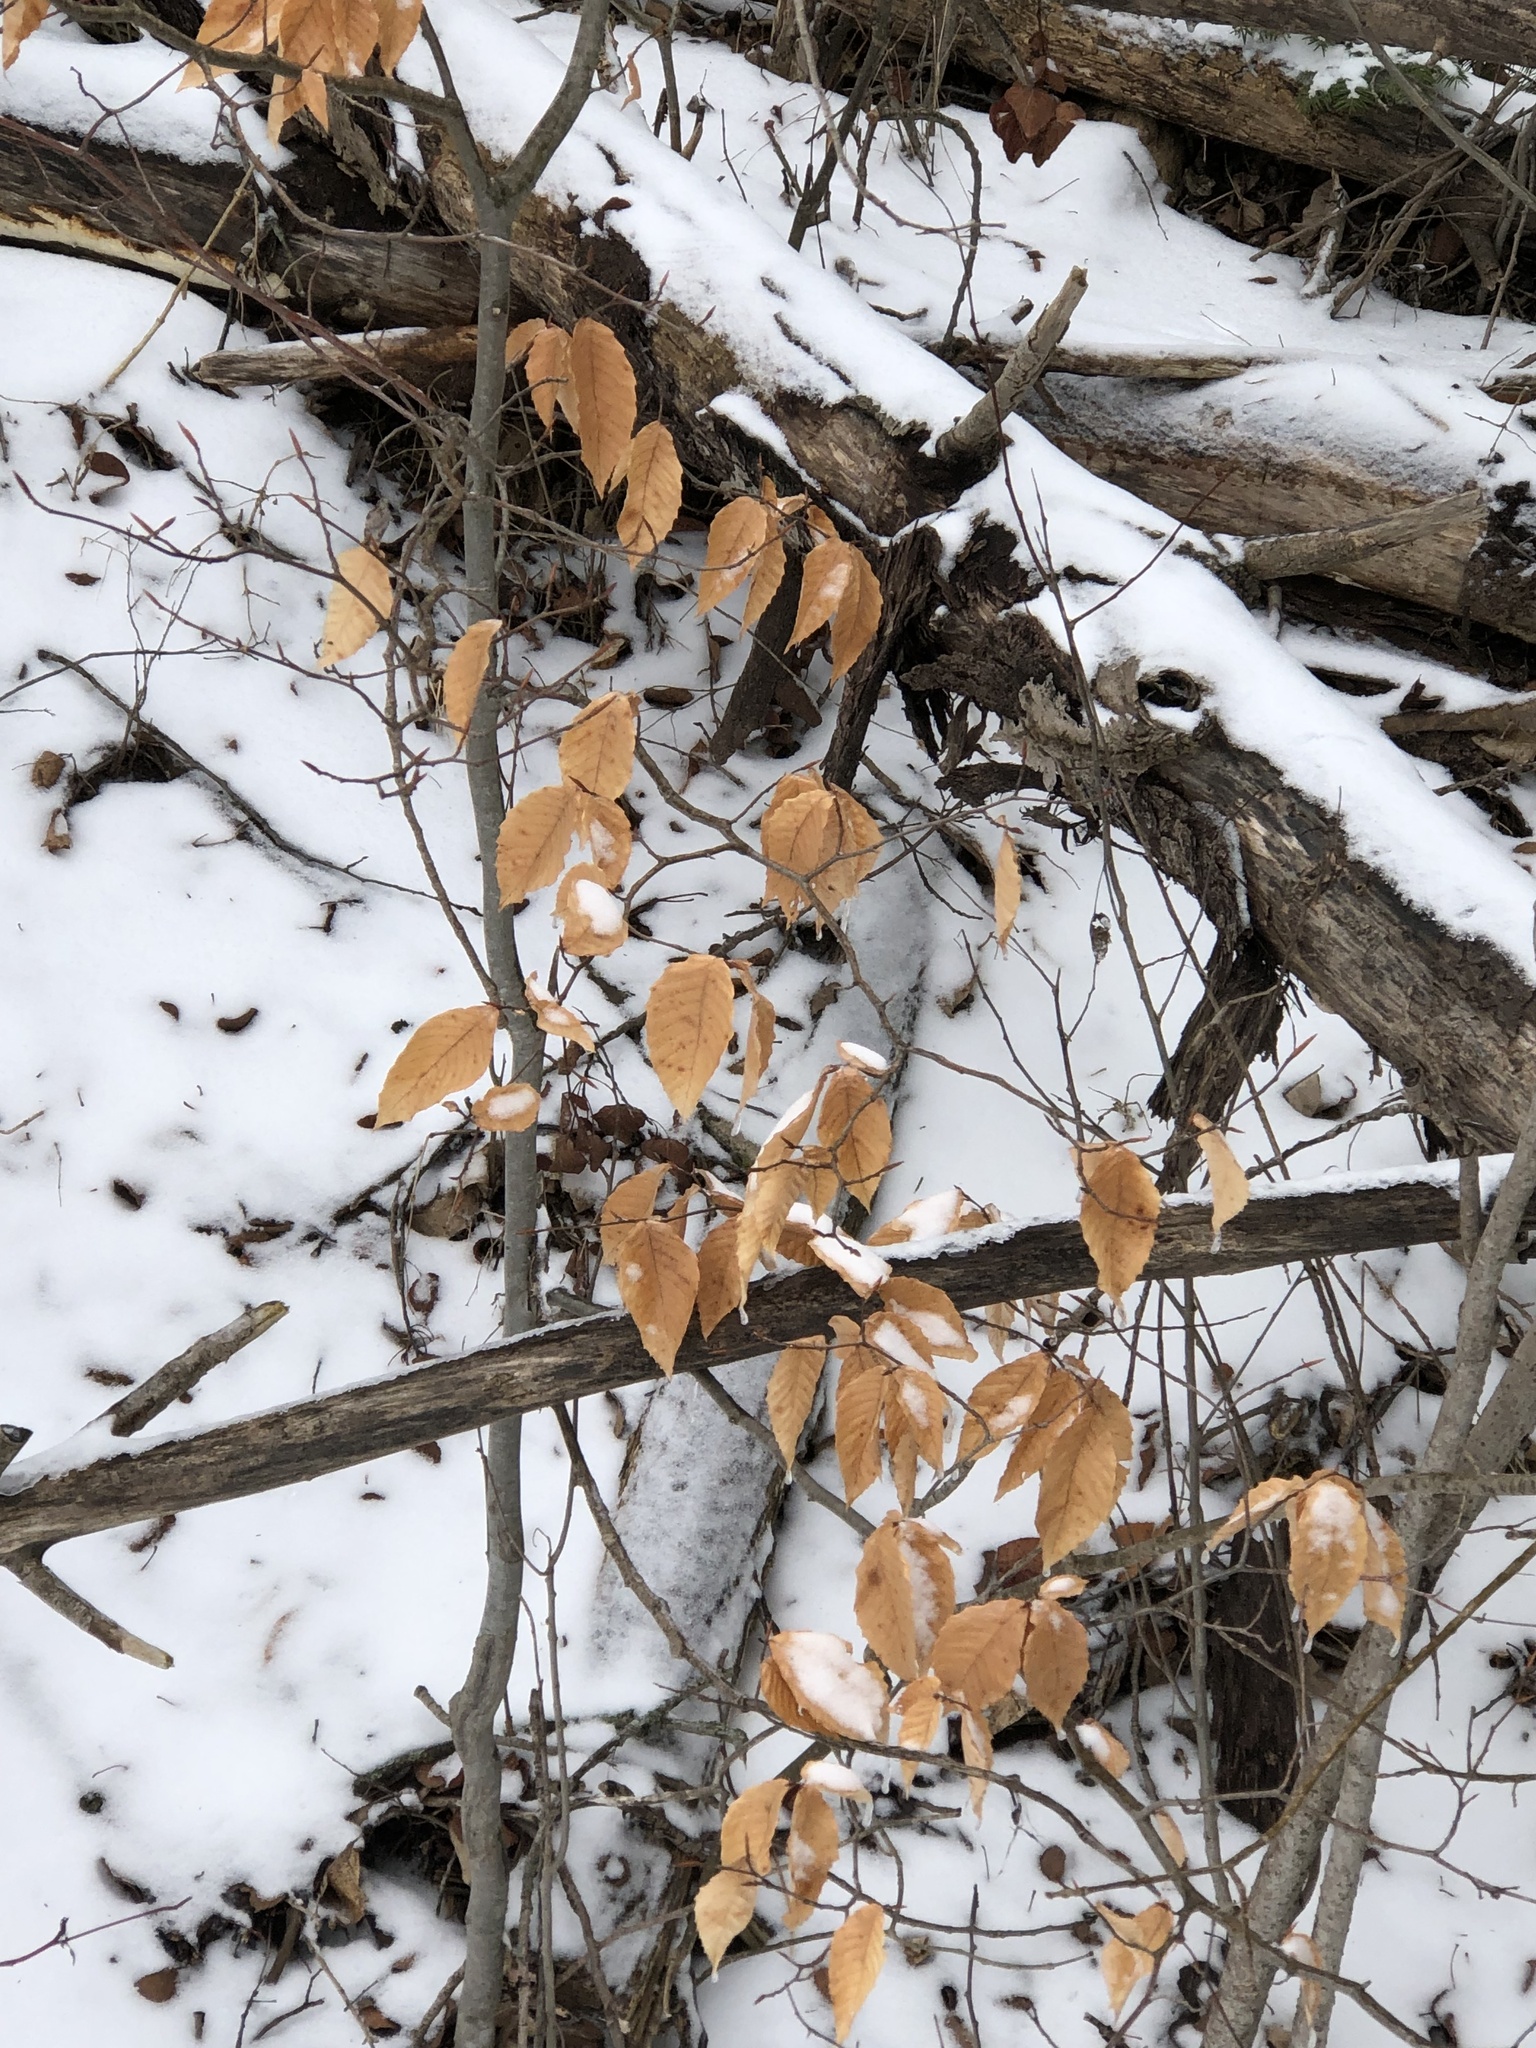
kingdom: Plantae
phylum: Tracheophyta
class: Magnoliopsida
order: Fagales
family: Fagaceae
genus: Fagus
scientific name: Fagus grandifolia
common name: American beech
